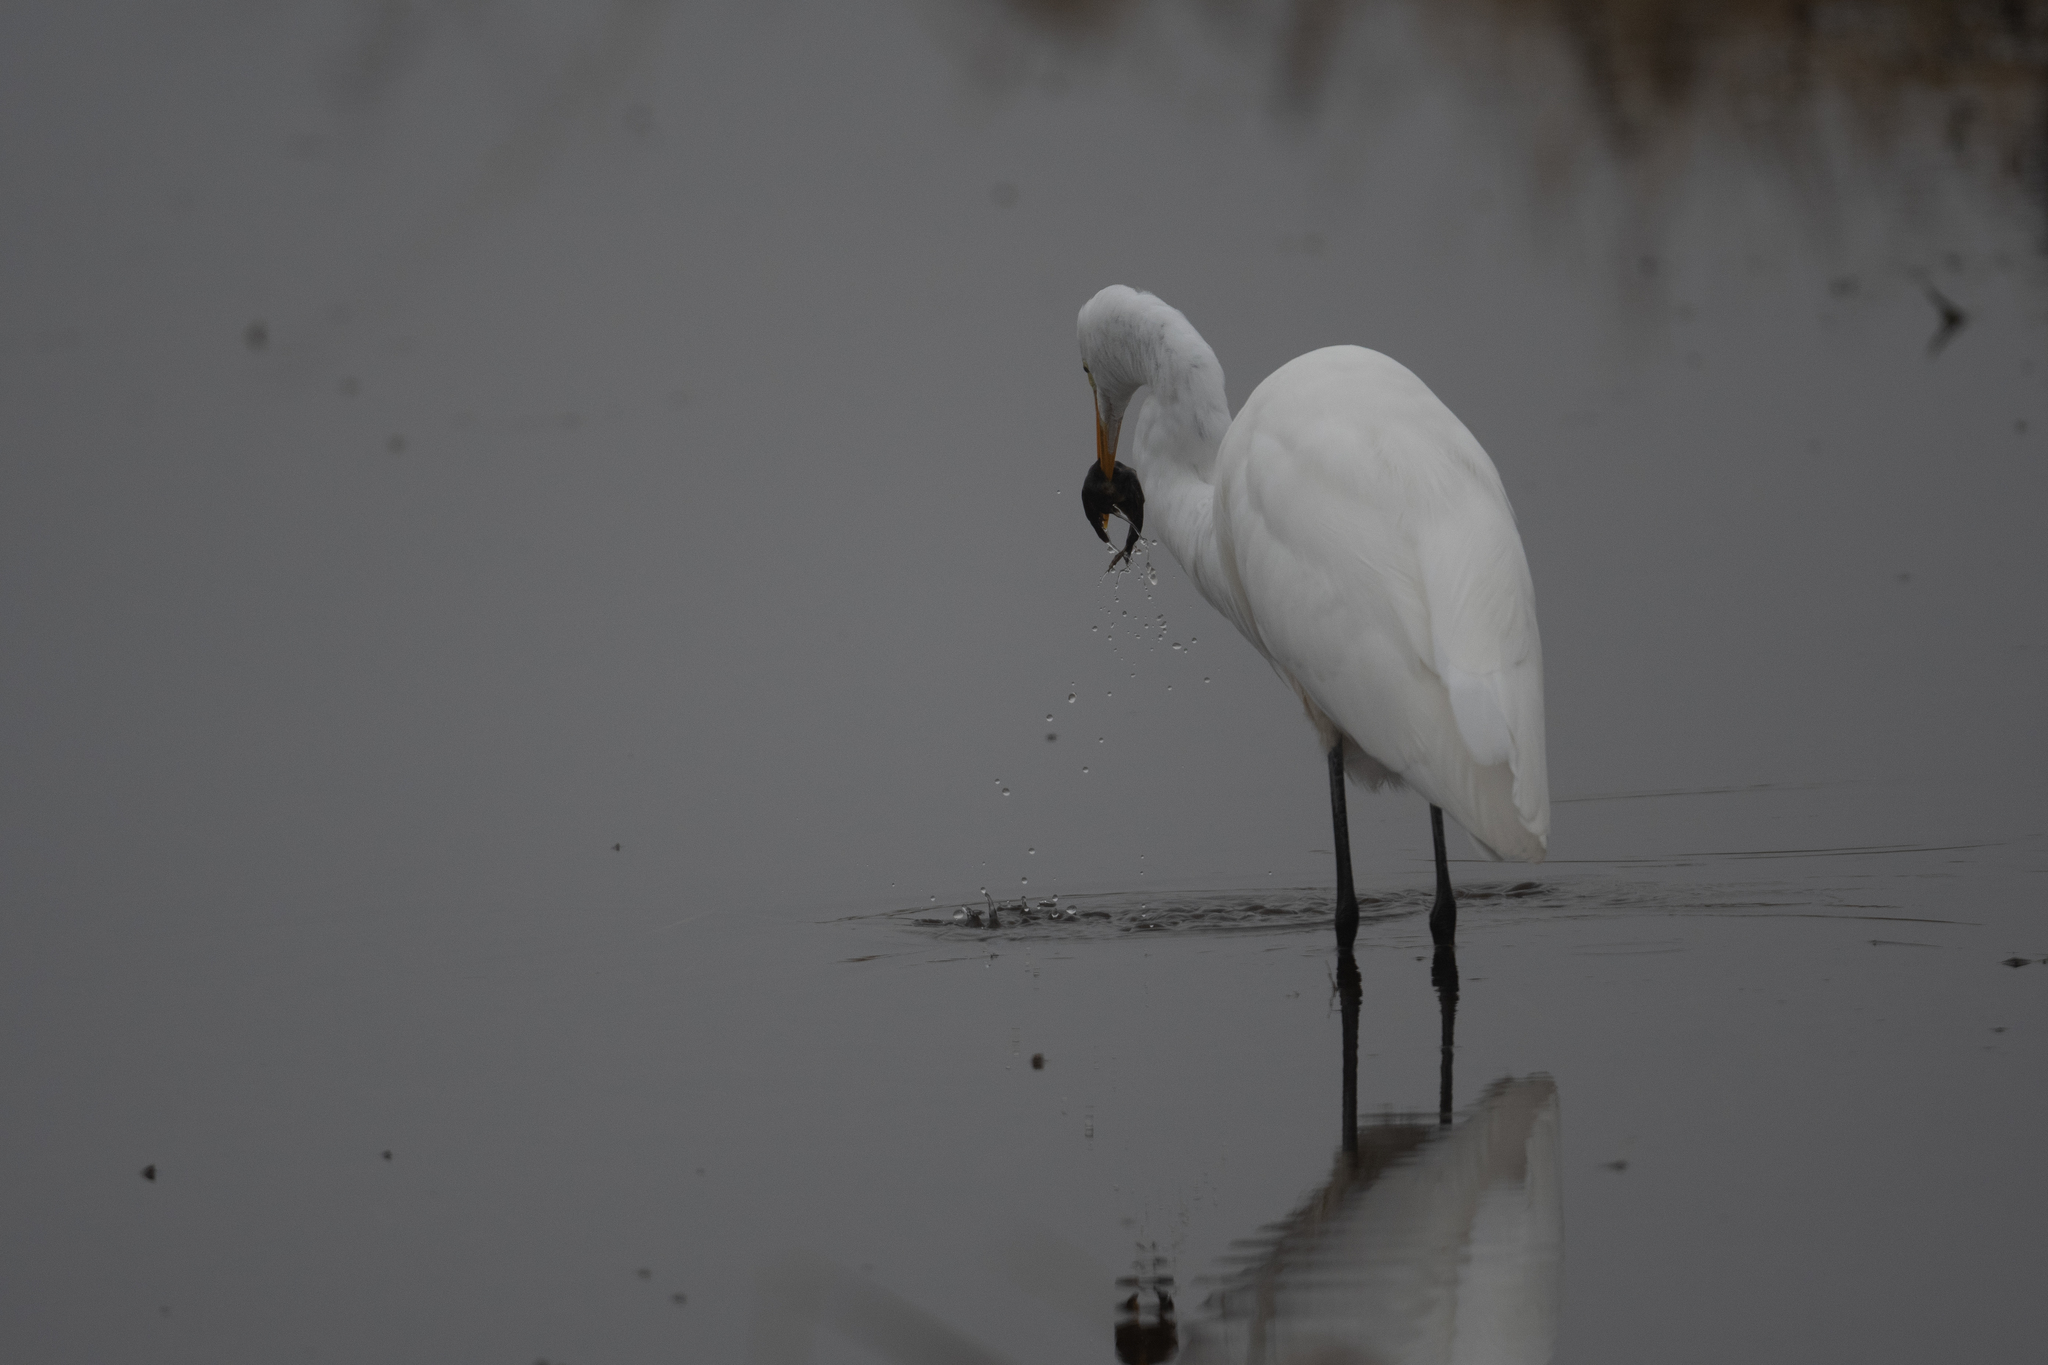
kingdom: Animalia
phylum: Chordata
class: Aves
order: Pelecaniformes
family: Ardeidae
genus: Ardea
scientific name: Ardea alba
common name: Great egret
